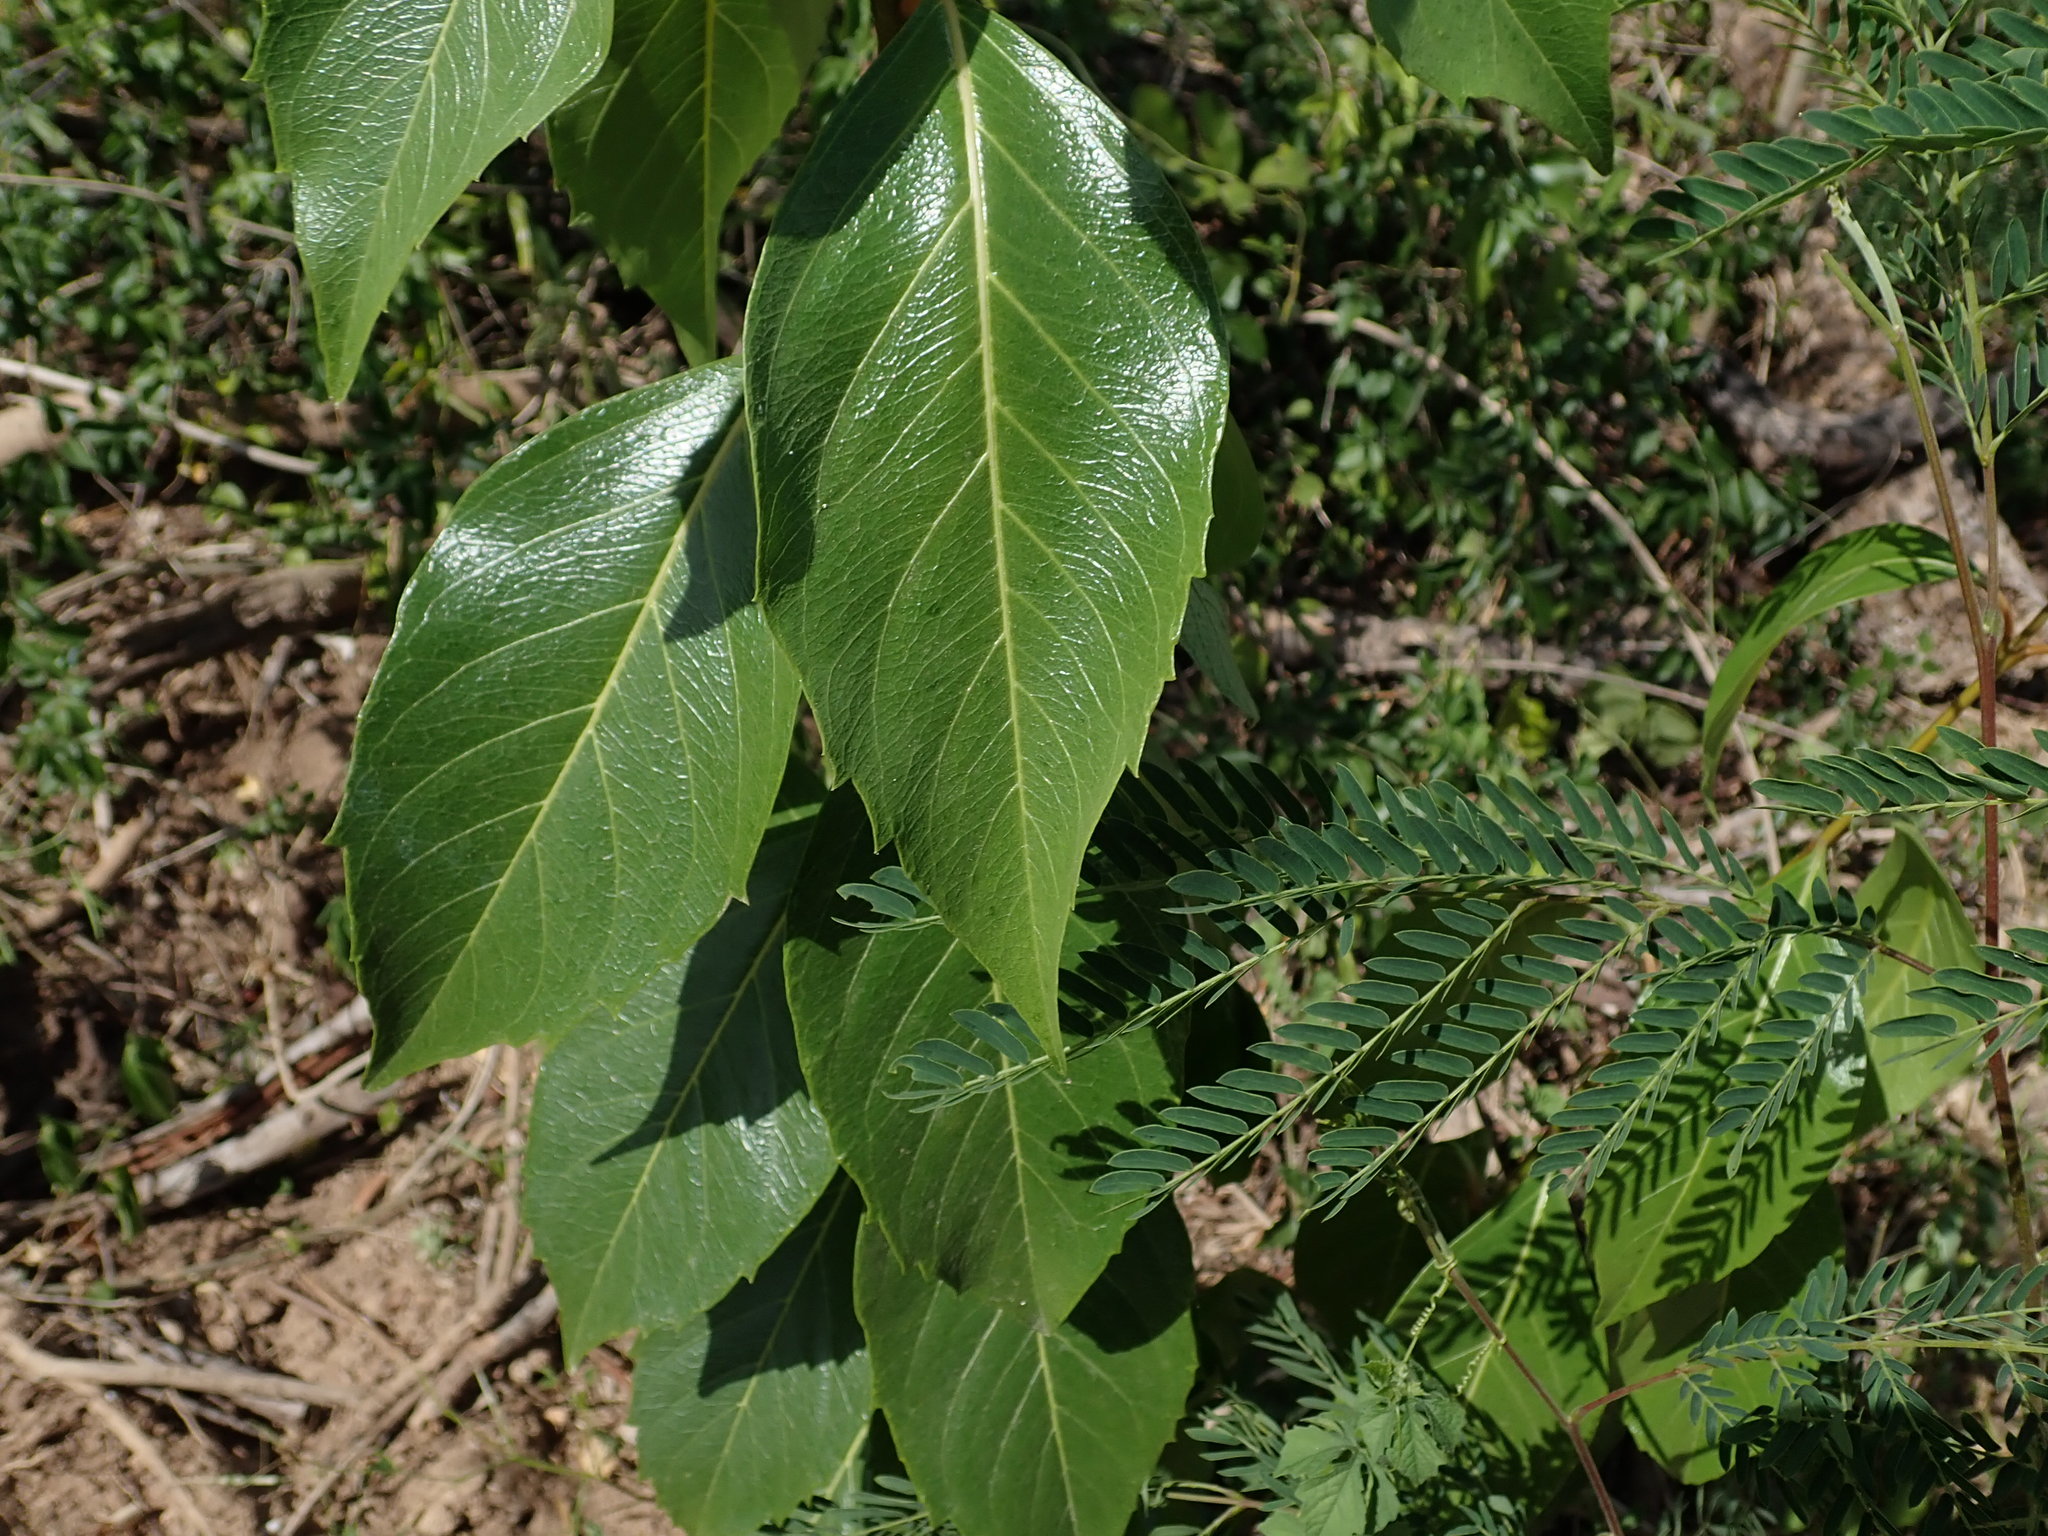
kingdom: Plantae
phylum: Tracheophyta
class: Magnoliopsida
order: Lamiales
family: Verbenaceae
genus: Citharexylum
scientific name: Citharexylum spinosum
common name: Fiddlewood
